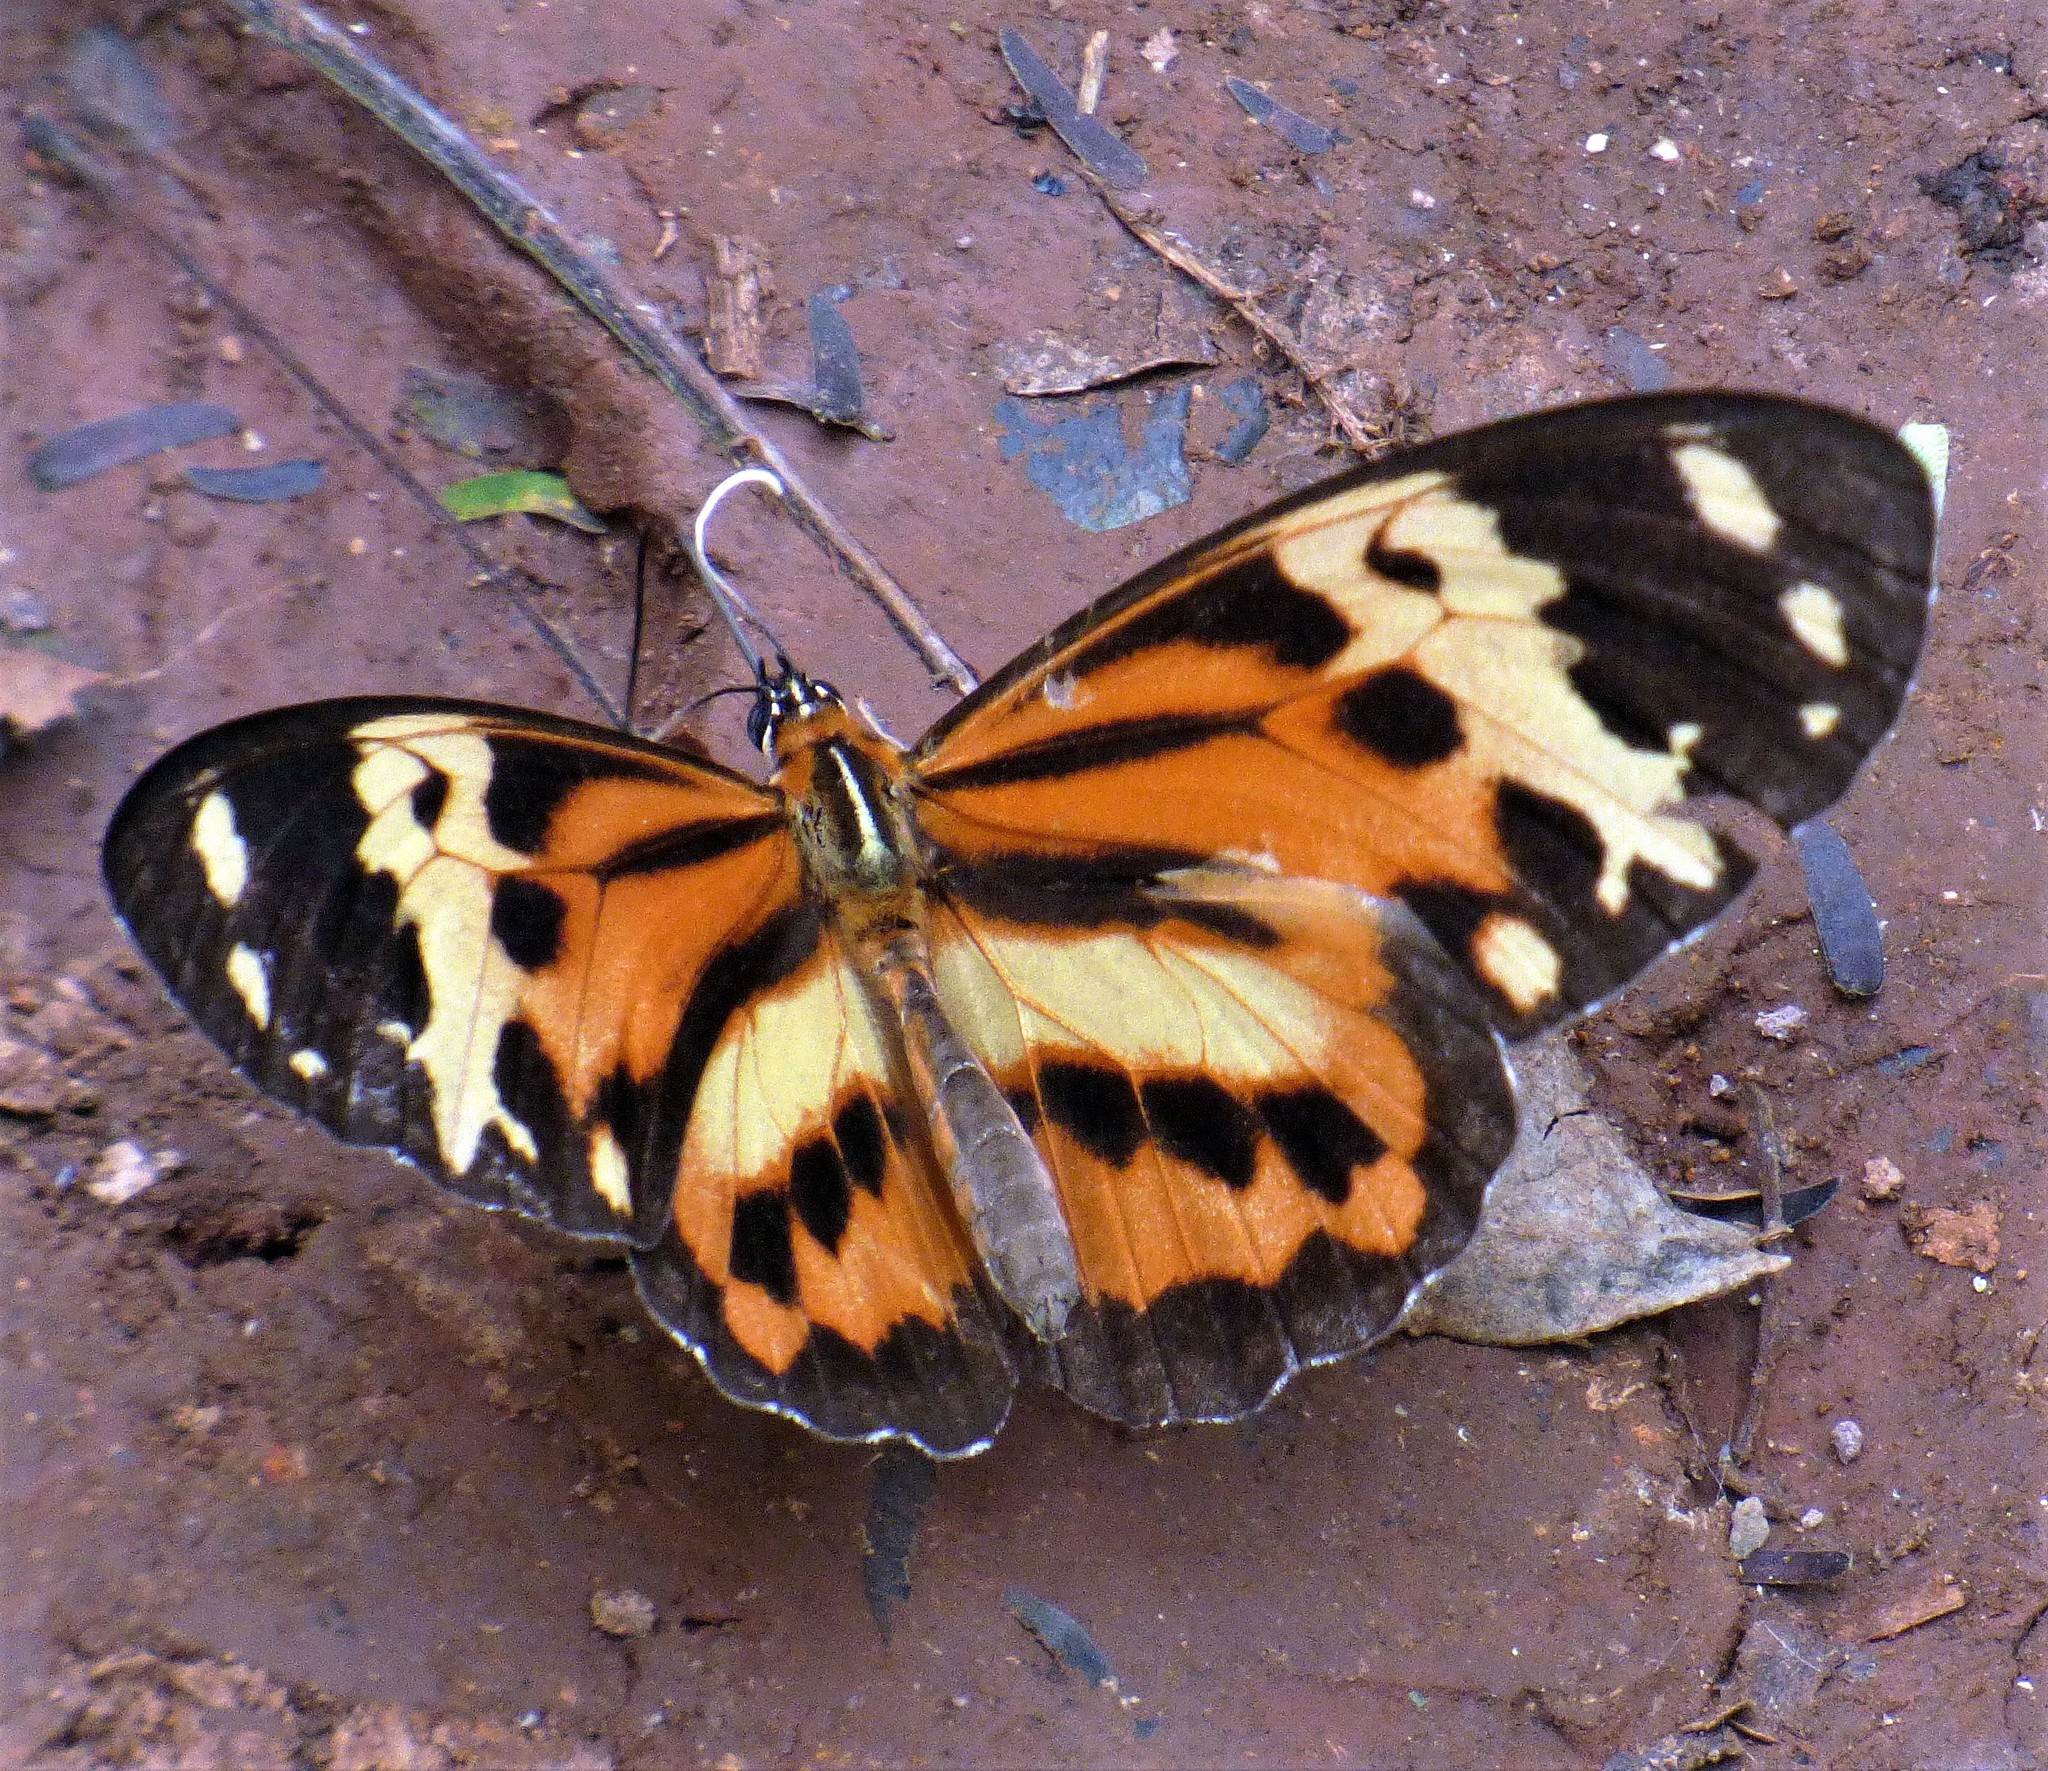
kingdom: Animalia
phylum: Arthropoda
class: Insecta
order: Lepidoptera
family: Nymphalidae
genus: Tithorea
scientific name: Tithorea harmonia
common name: Harmonia tigerwing
